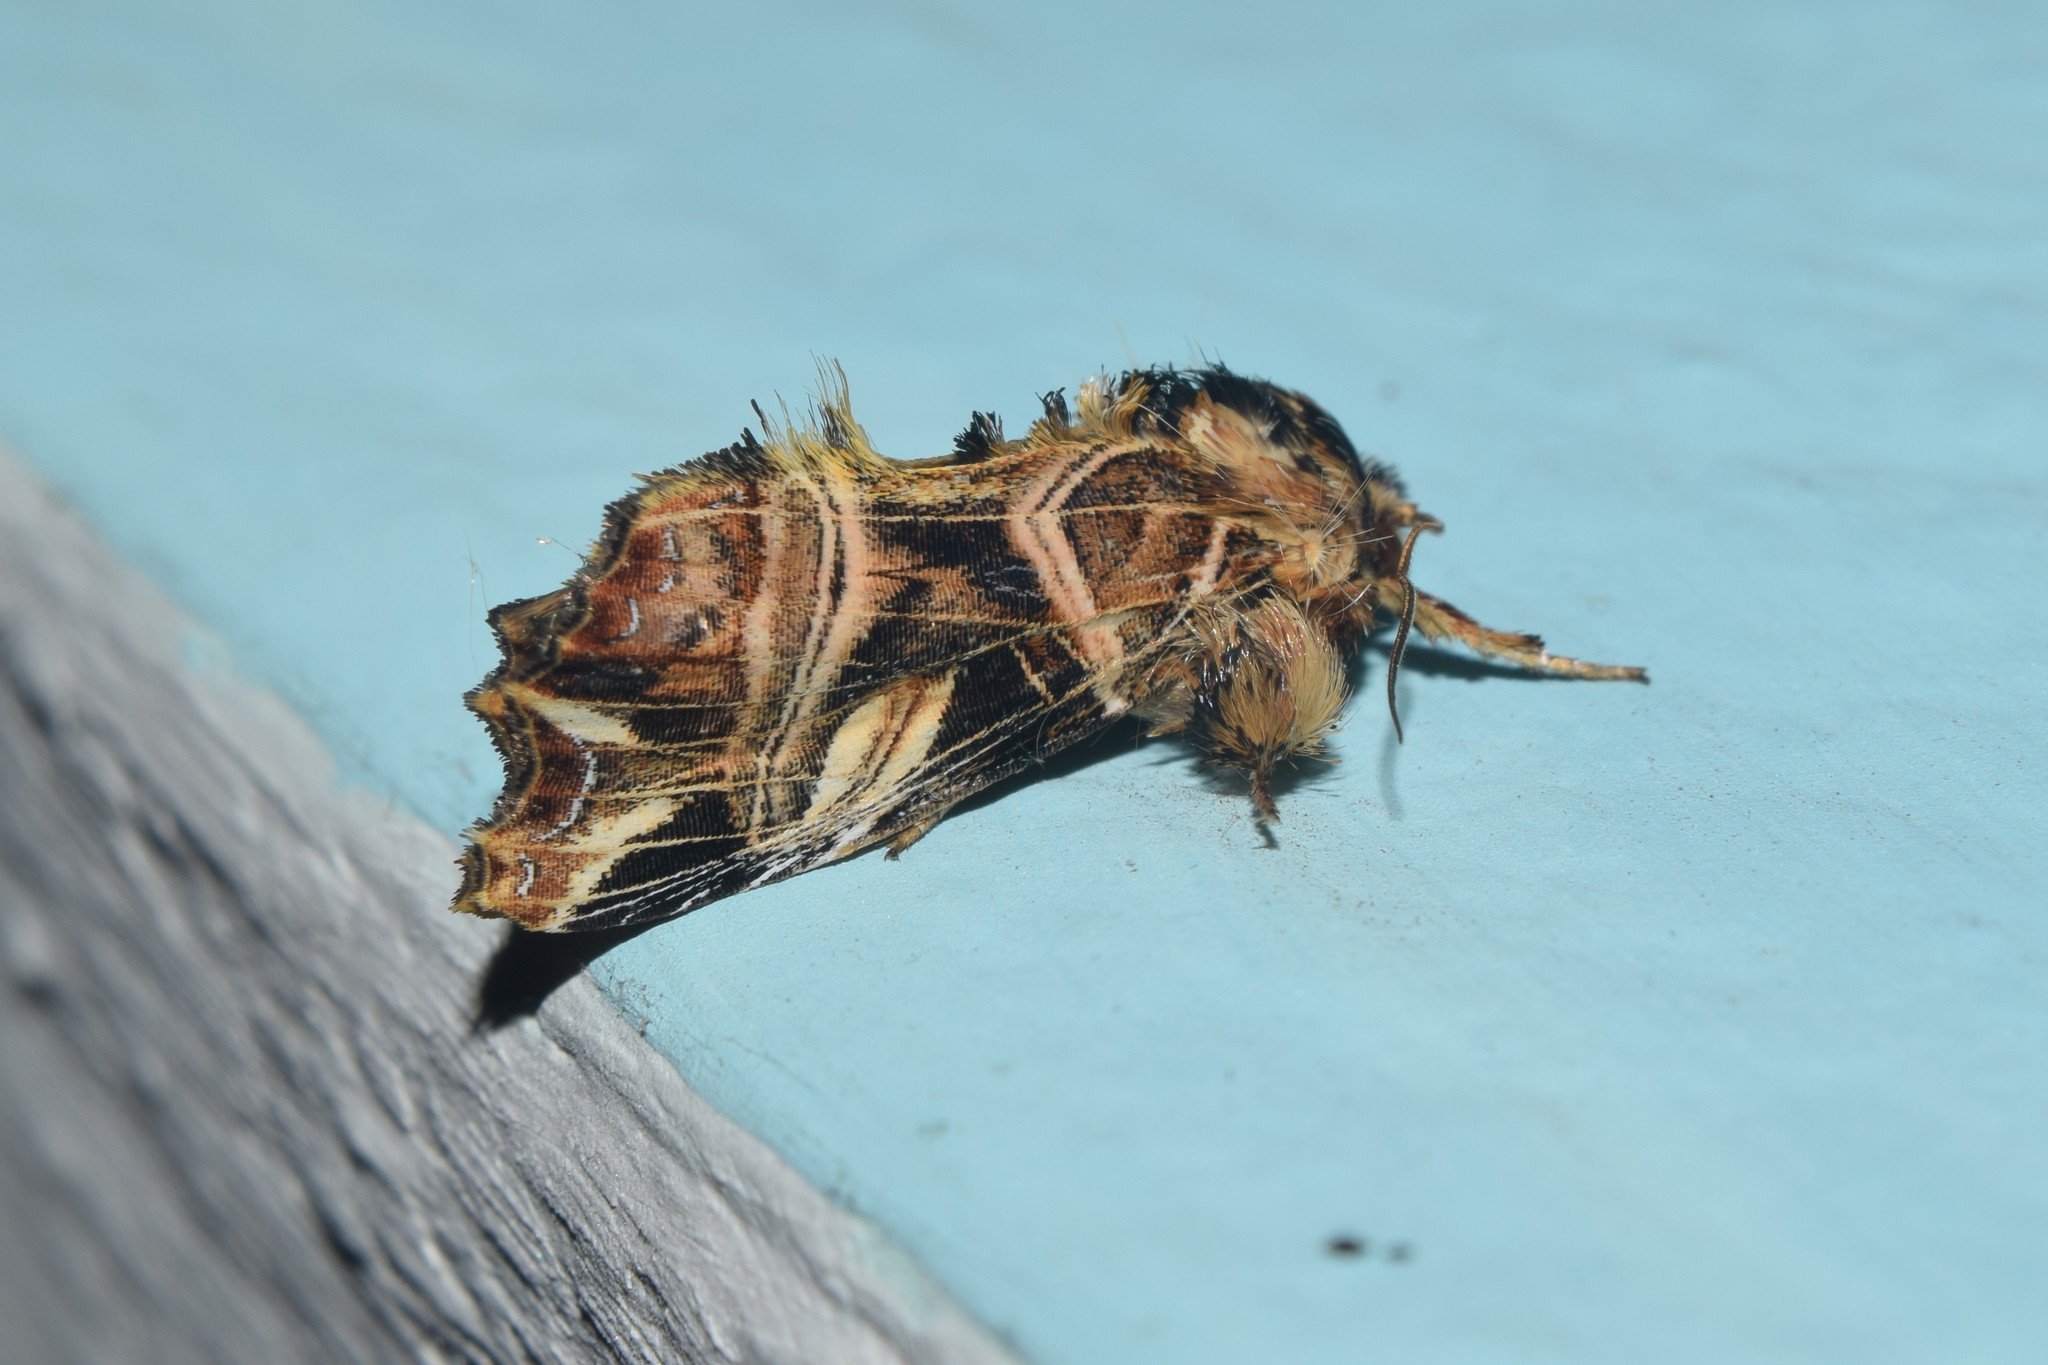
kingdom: Animalia
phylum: Arthropoda
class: Insecta
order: Lepidoptera
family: Noctuidae
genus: Callopistria
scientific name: Callopistria repleta
